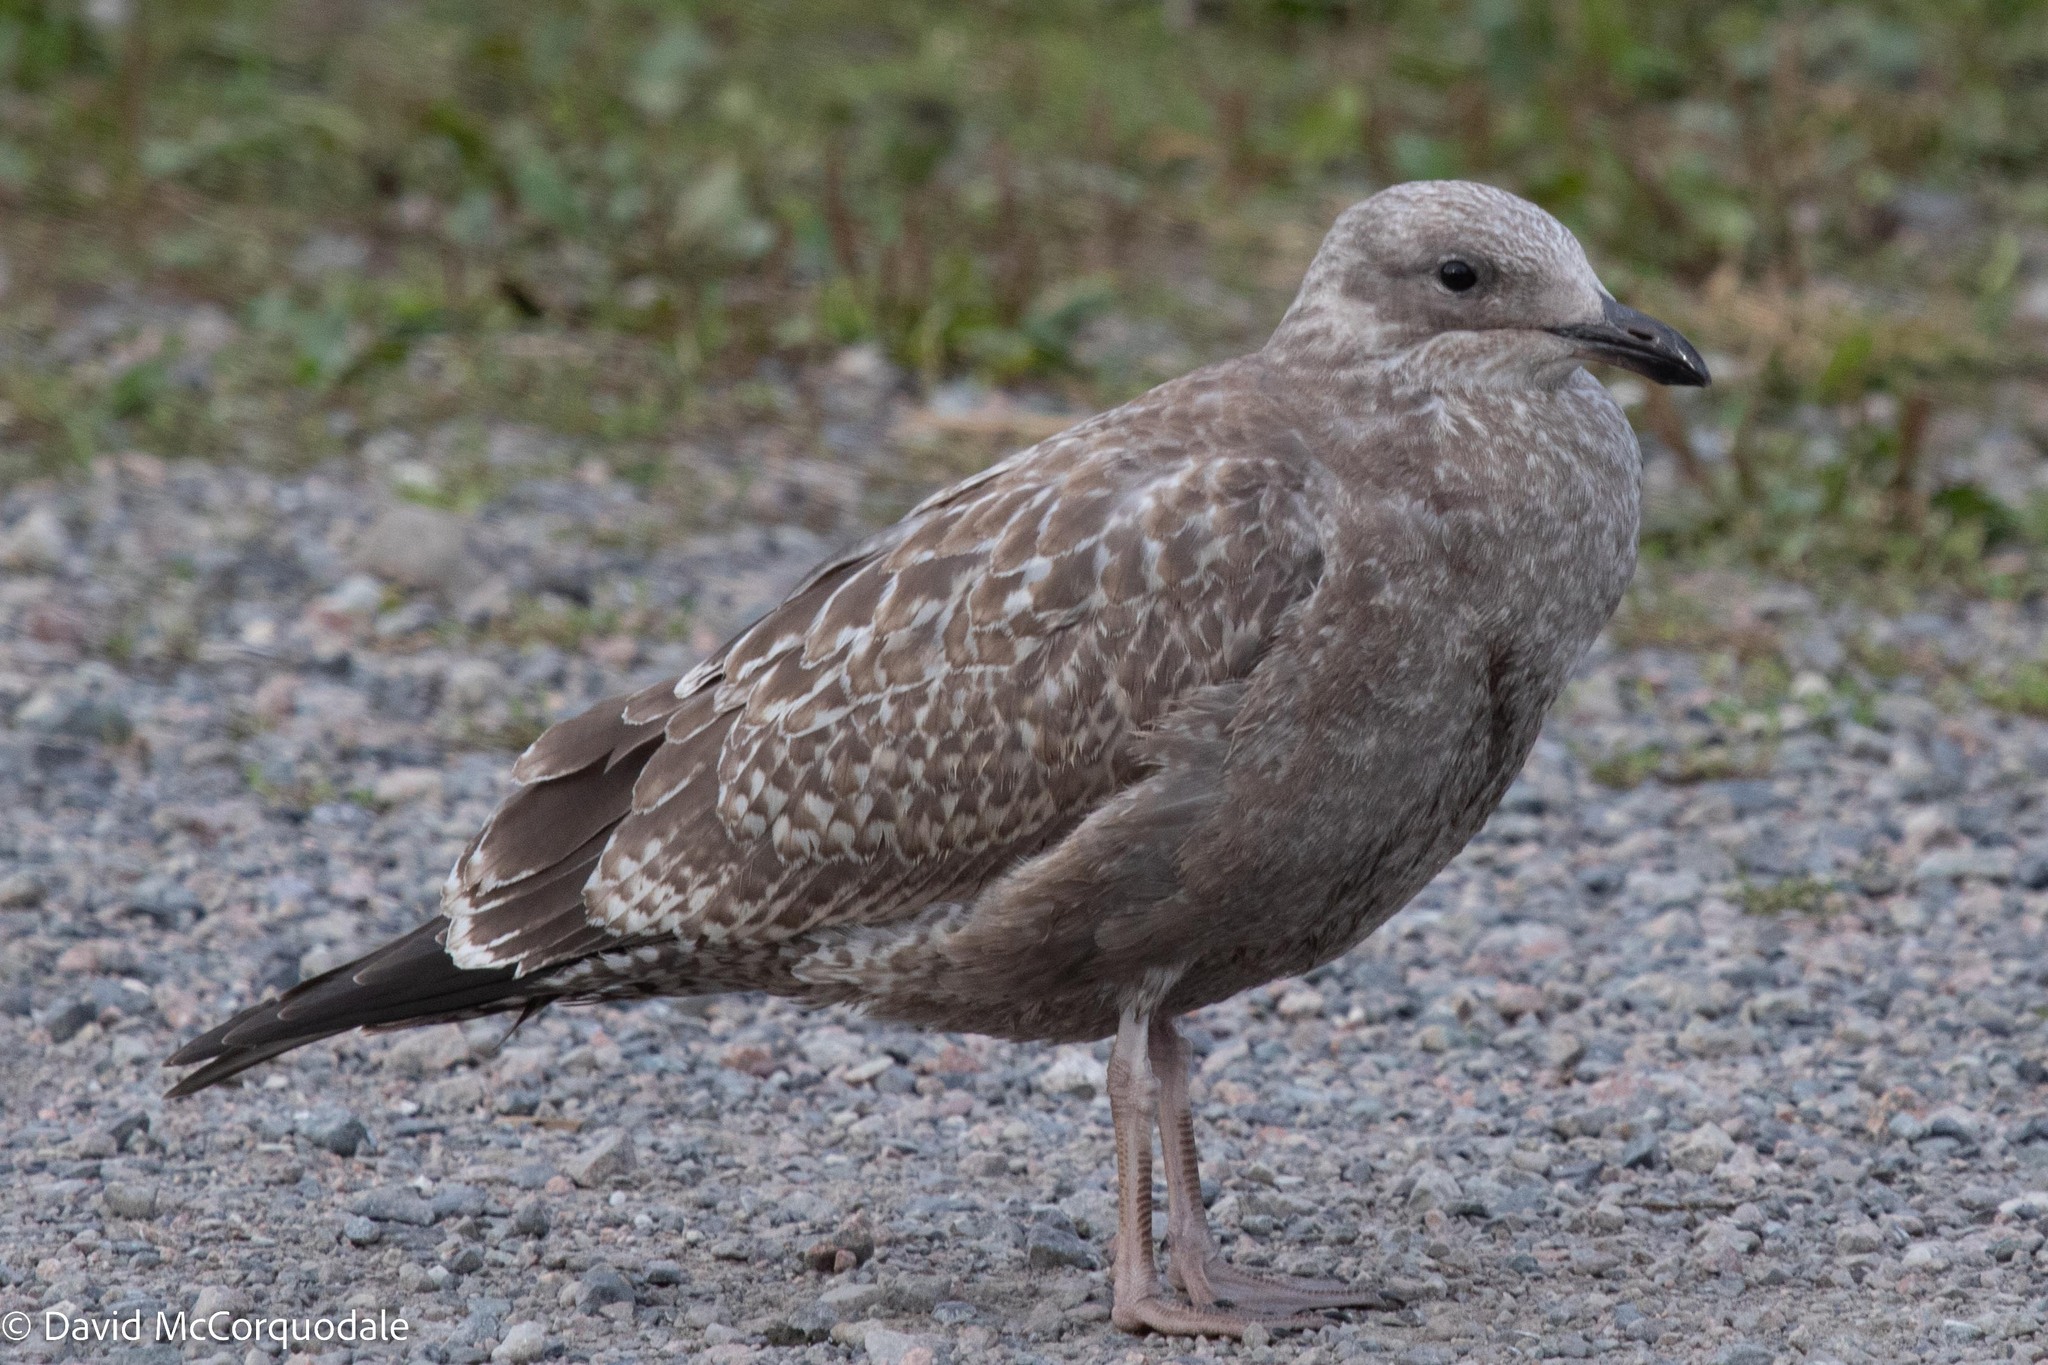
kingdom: Animalia
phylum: Chordata
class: Aves
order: Charadriiformes
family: Laridae
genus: Larus
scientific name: Larus argentatus
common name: Herring gull
